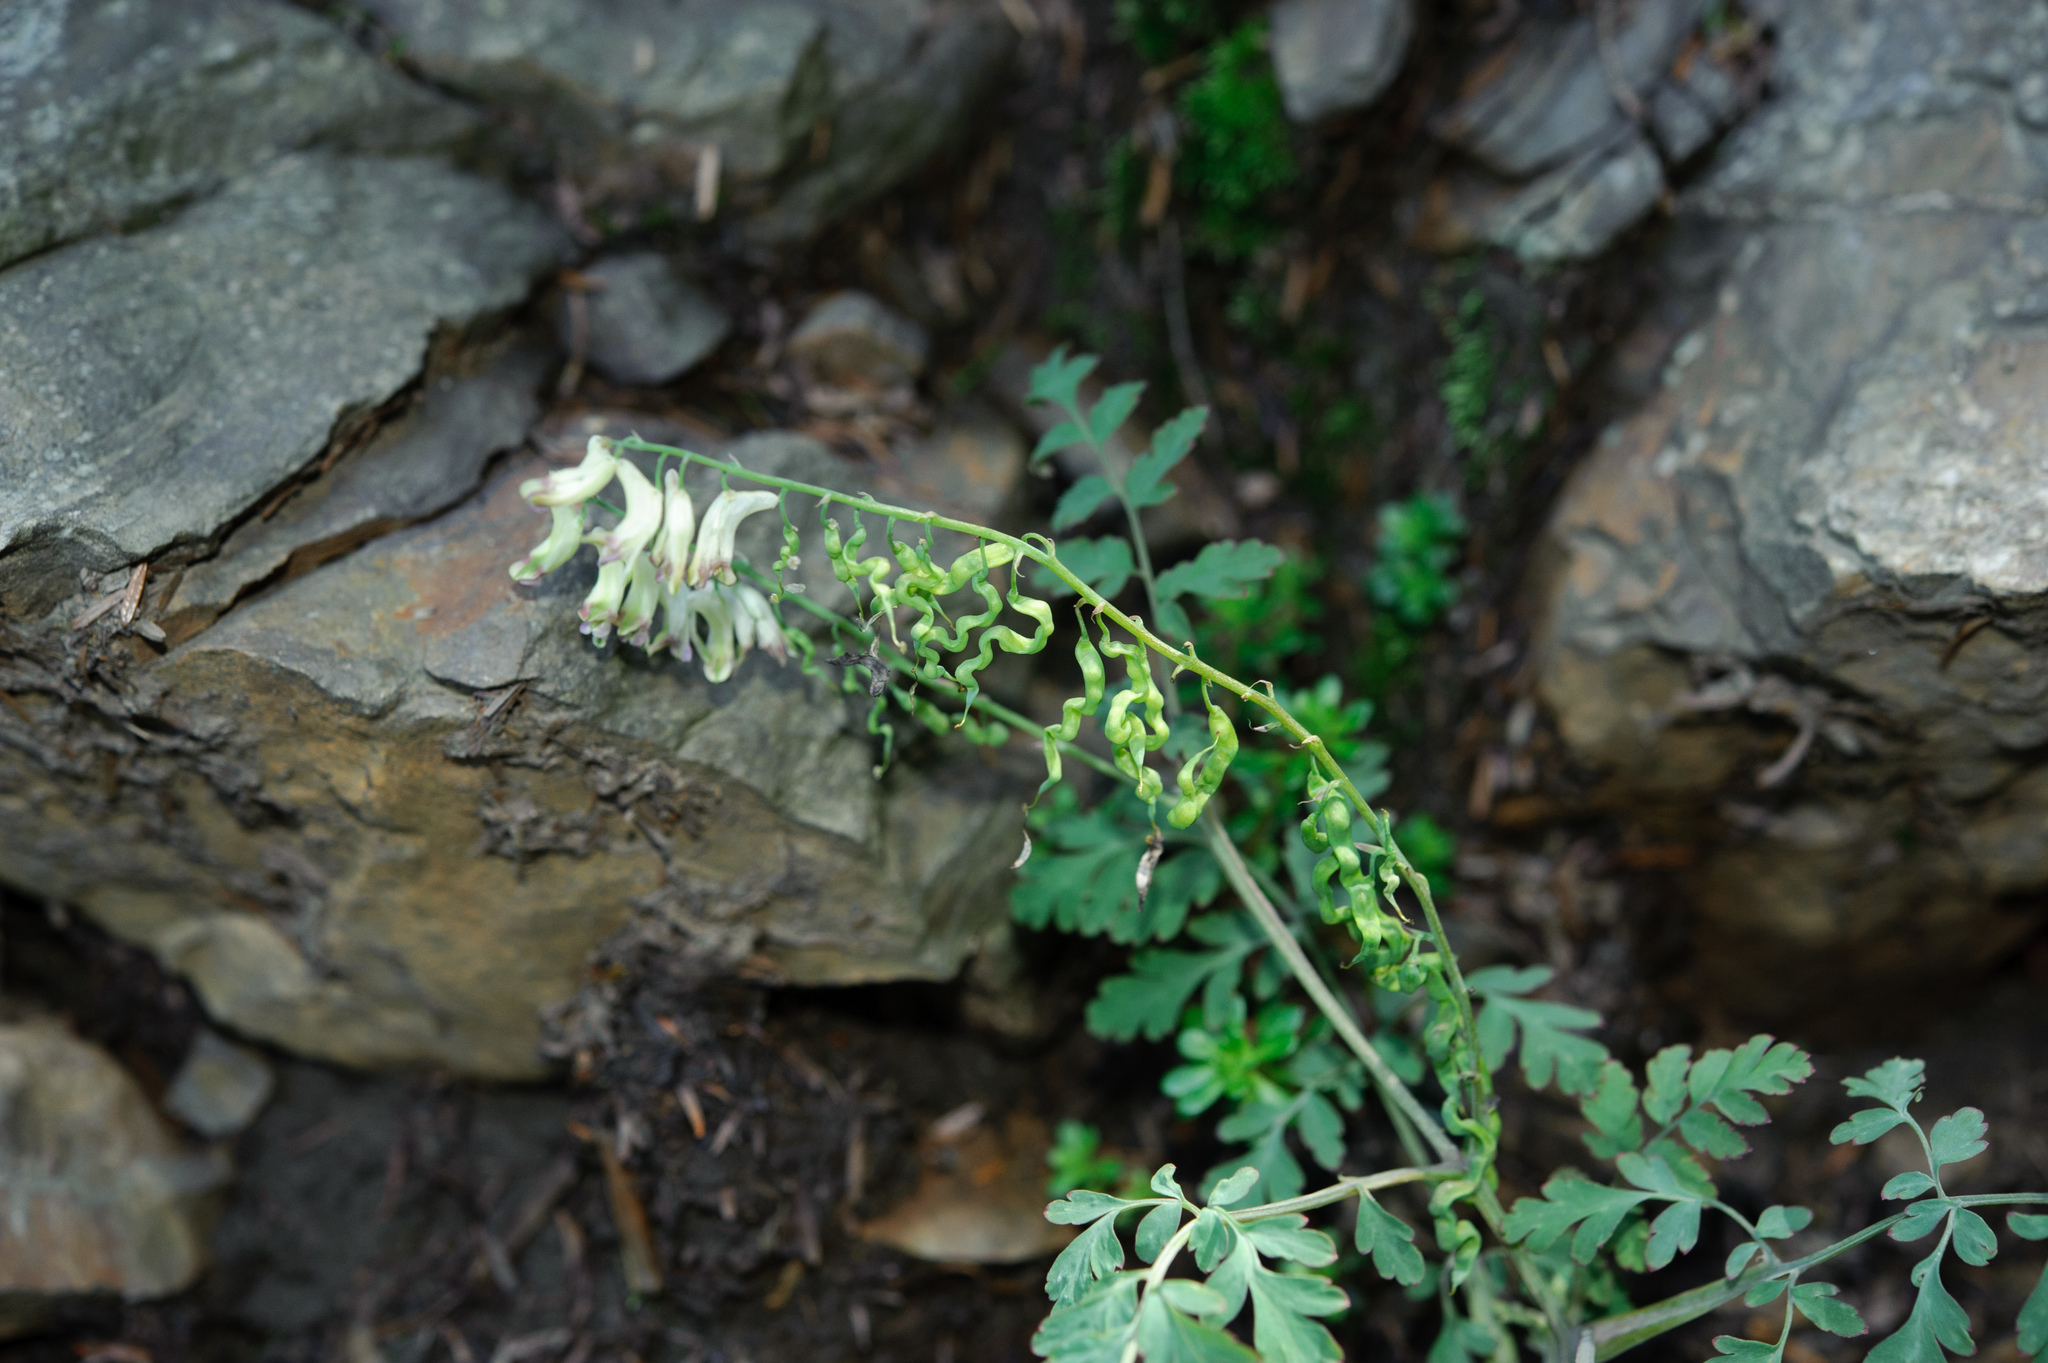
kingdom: Plantae
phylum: Tracheophyta
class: Magnoliopsida
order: Ranunculales
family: Papaveraceae
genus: Corydalis
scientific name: Corydalis ophiocarpa
